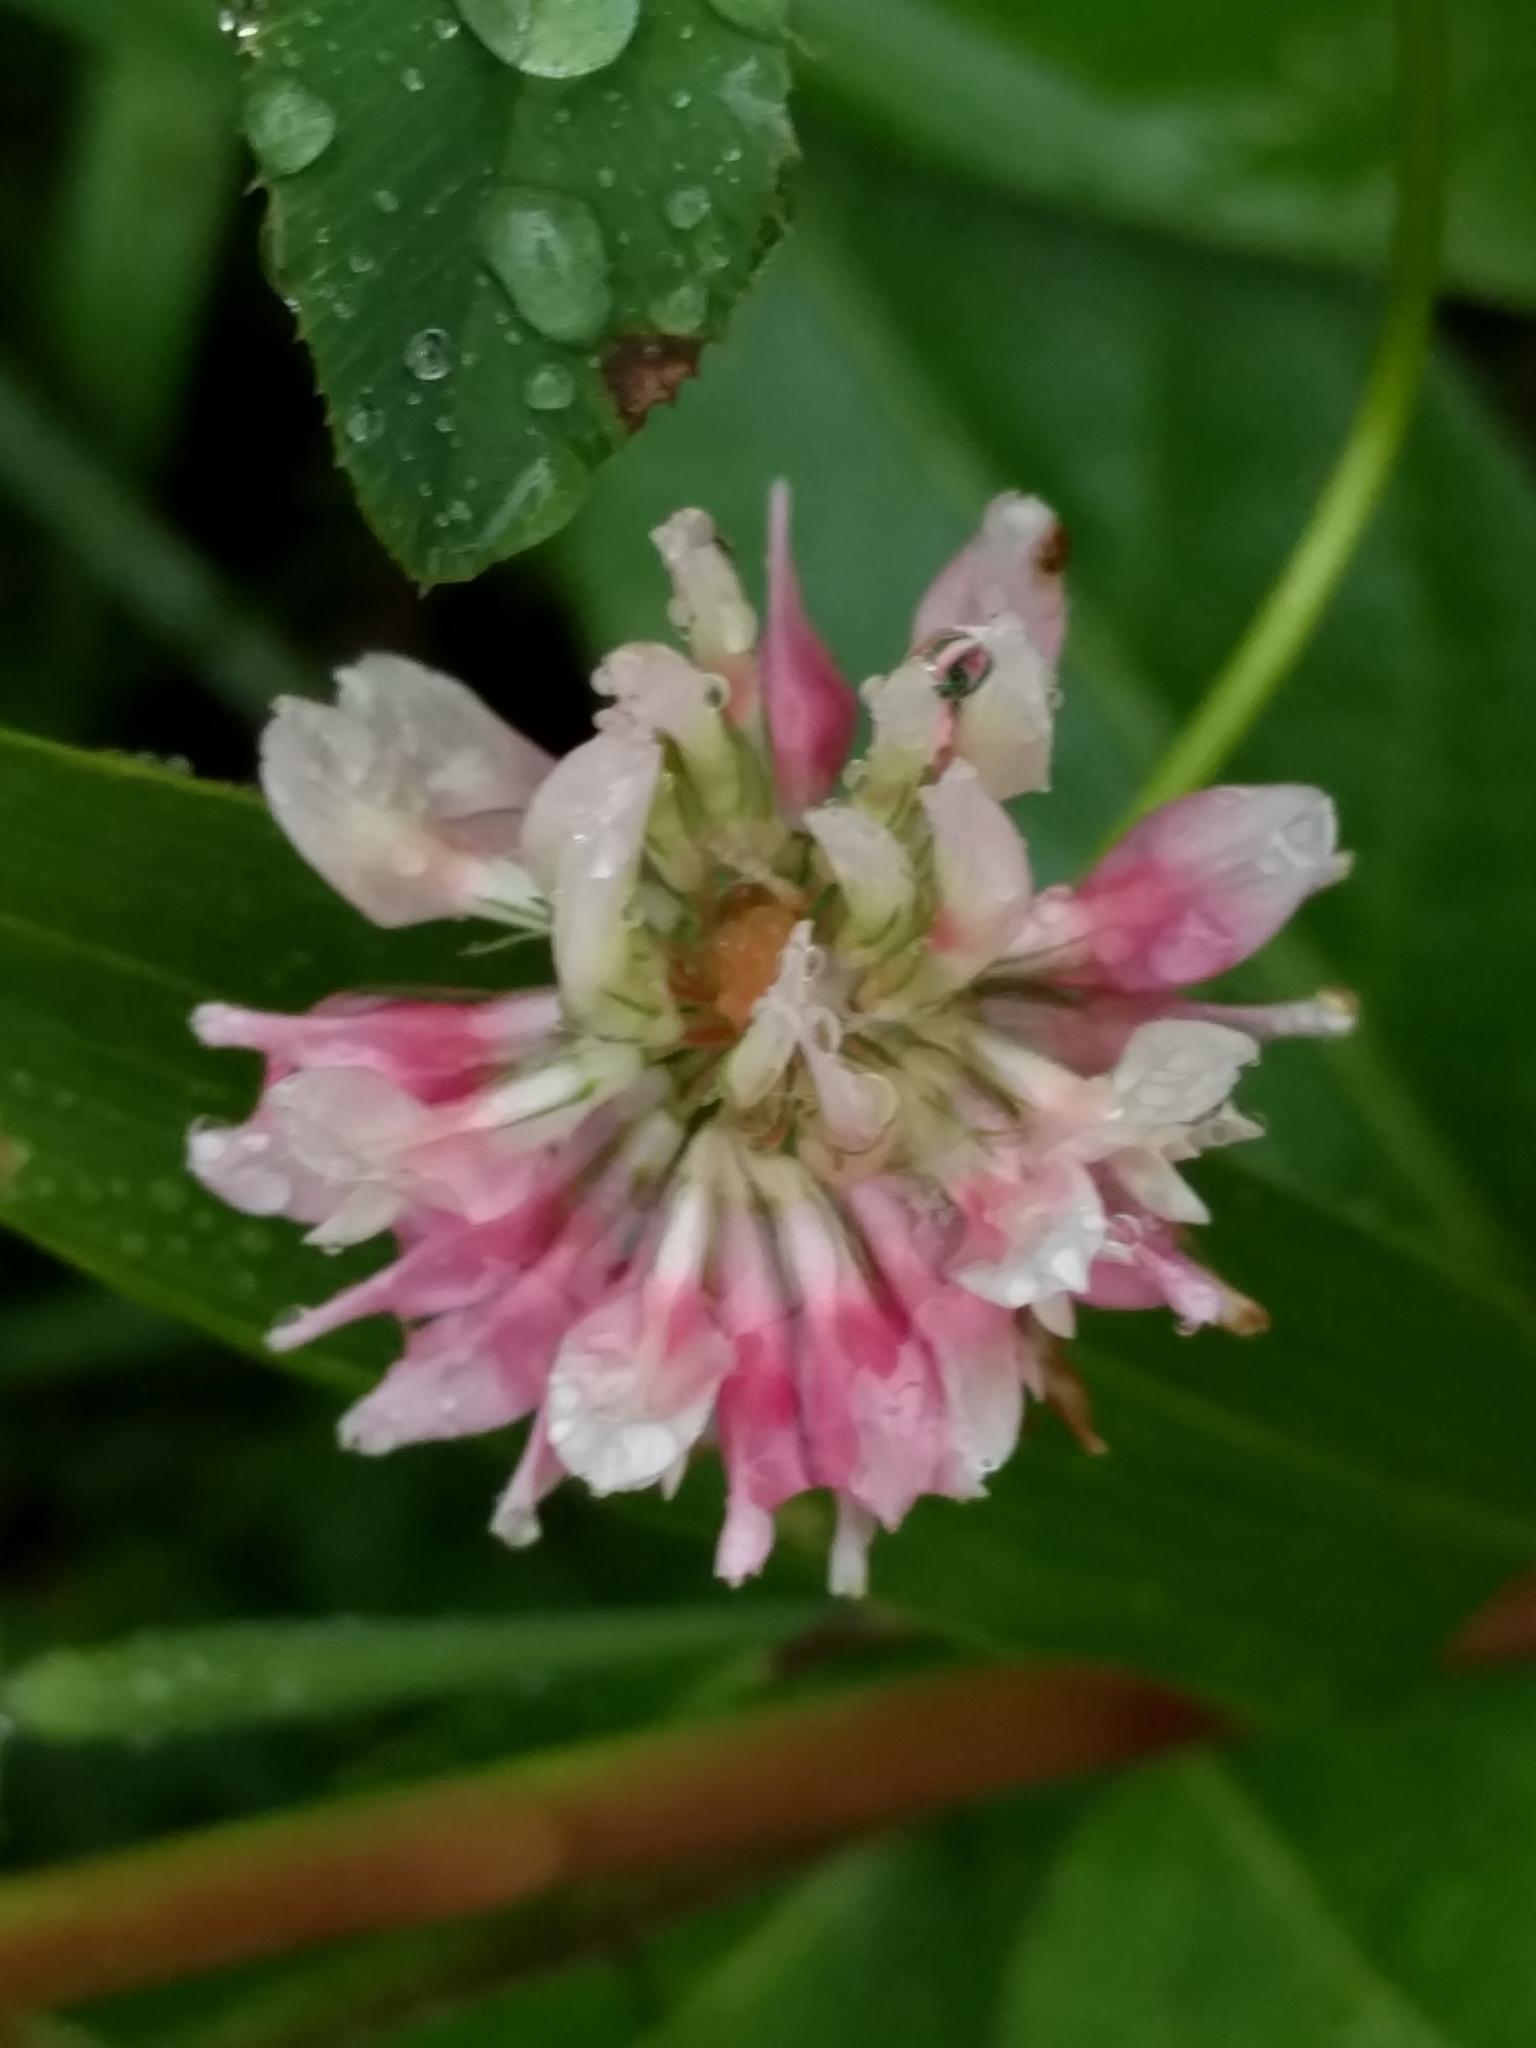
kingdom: Plantae
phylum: Tracheophyta
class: Magnoliopsida
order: Fabales
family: Fabaceae
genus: Trifolium
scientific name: Trifolium hybridum
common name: Alsike clover
